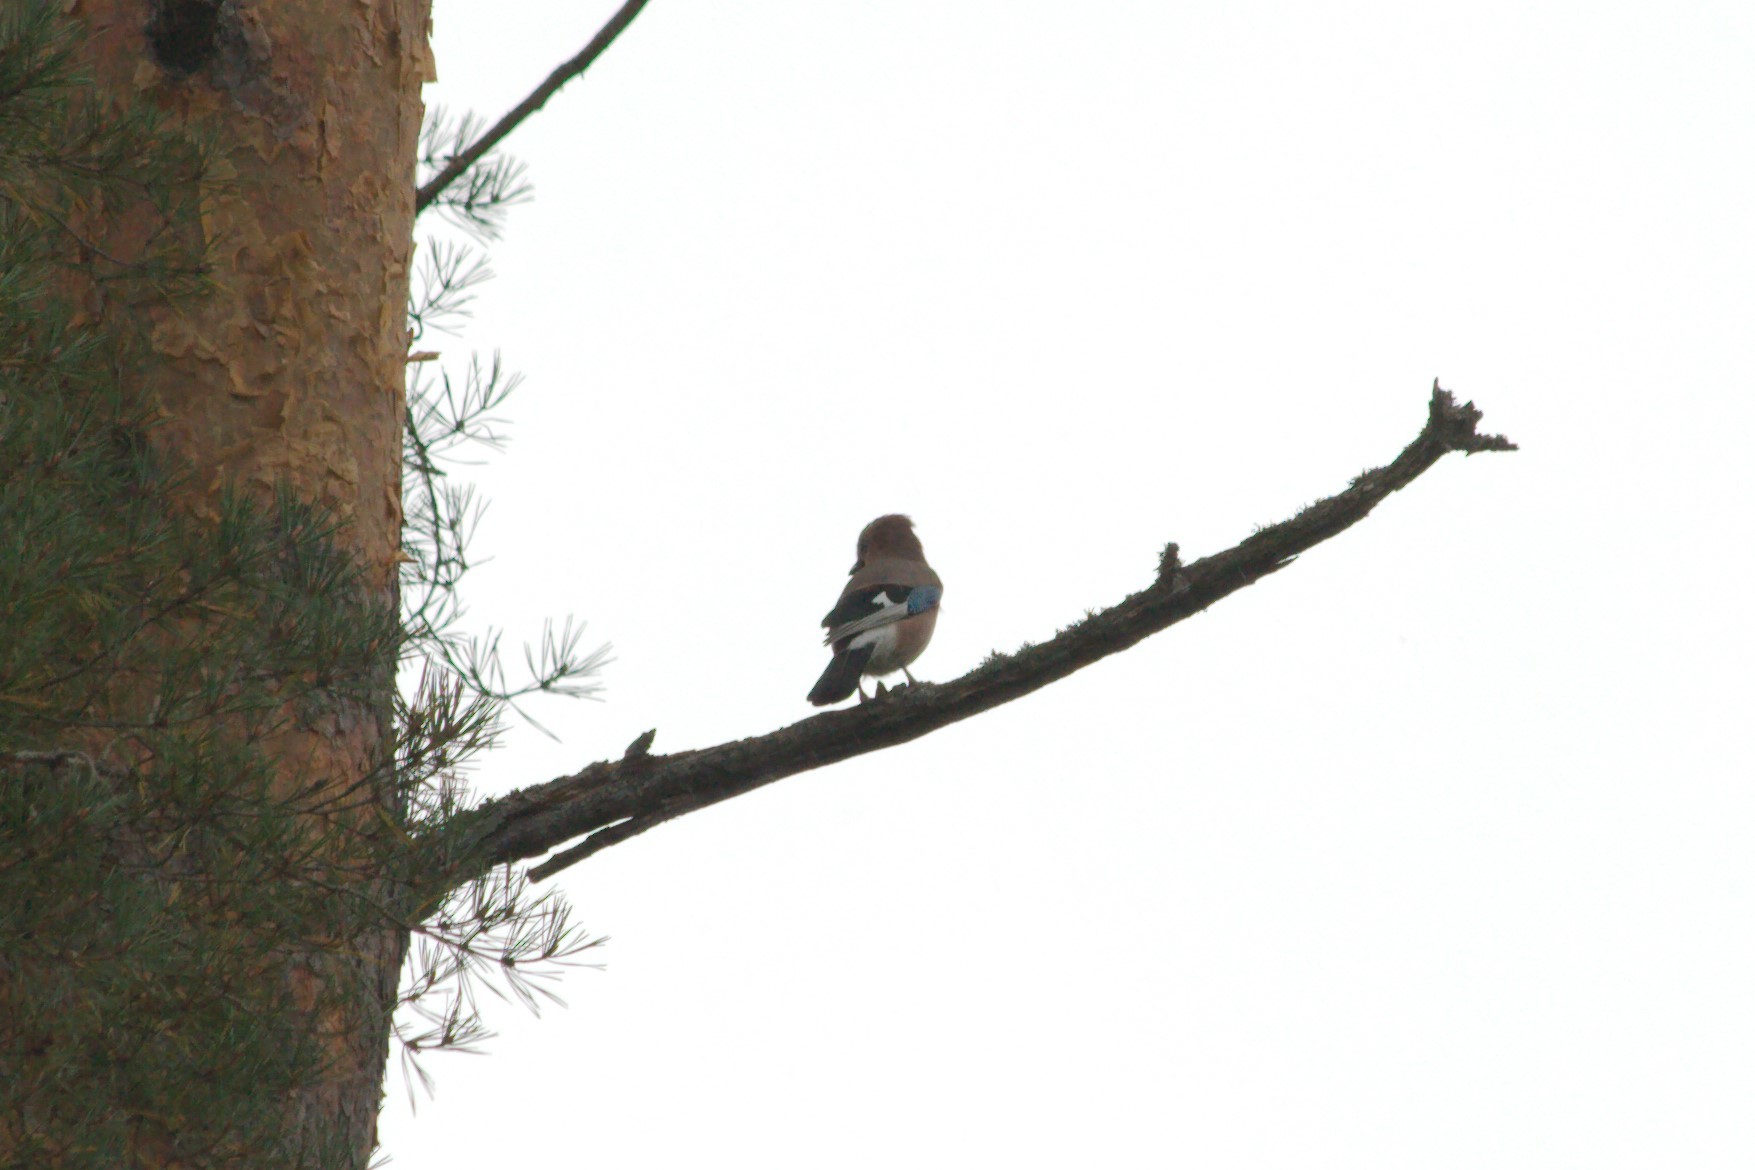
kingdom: Animalia
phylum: Chordata
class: Aves
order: Passeriformes
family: Corvidae
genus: Garrulus
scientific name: Garrulus glandarius
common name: Eurasian jay
